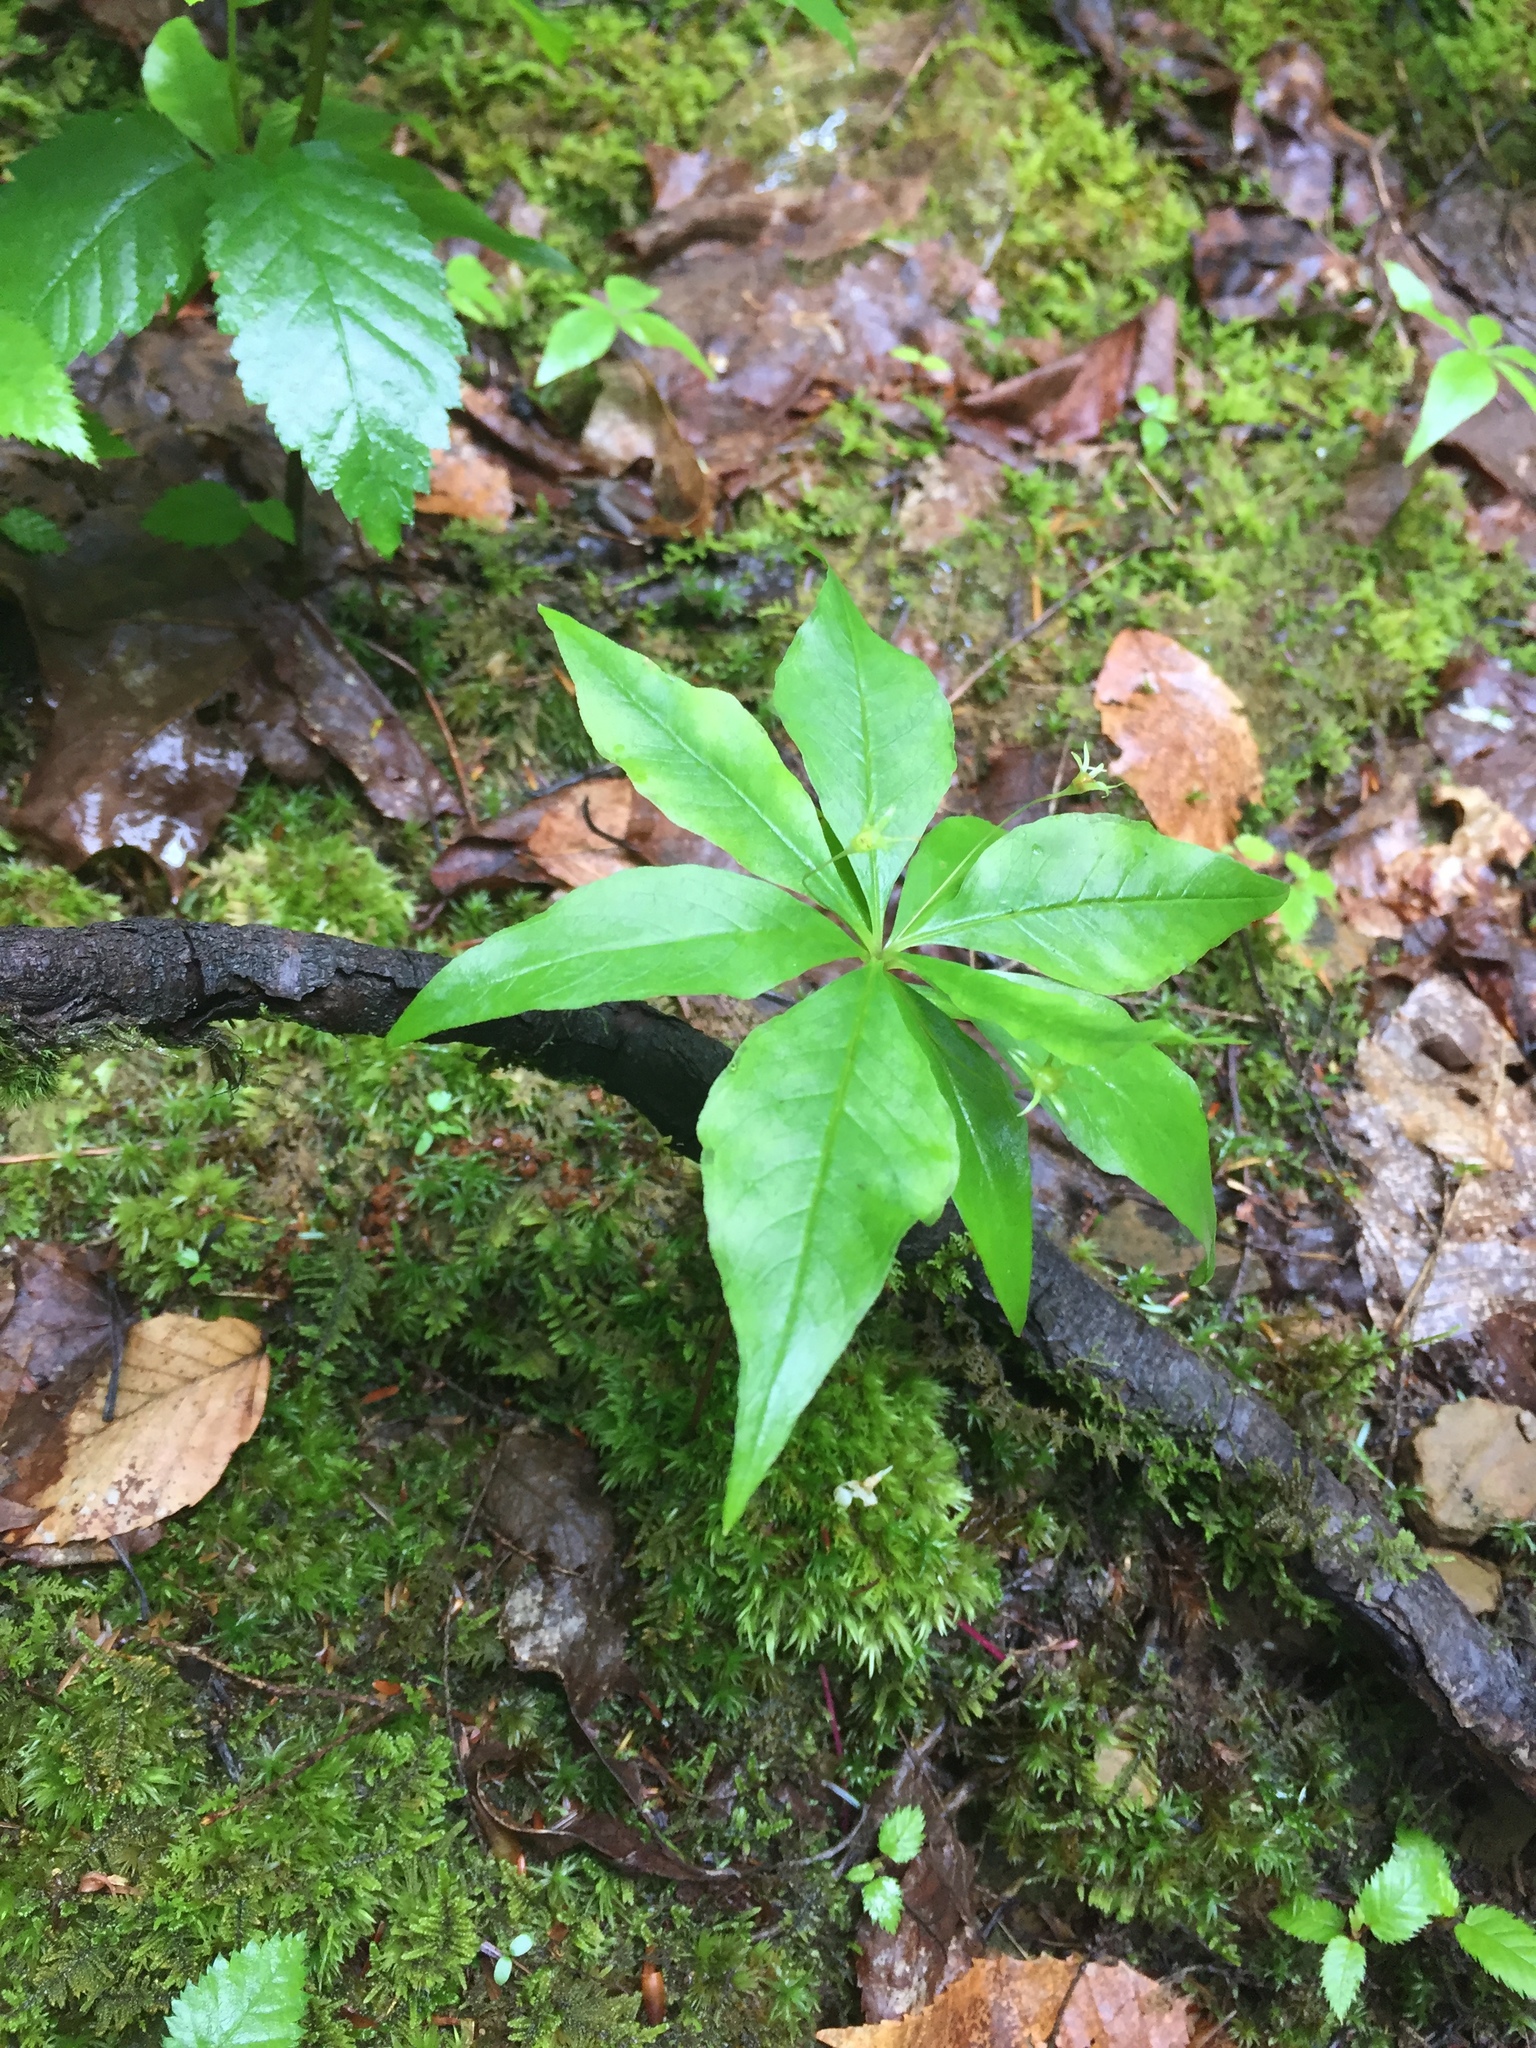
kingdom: Plantae
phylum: Tracheophyta
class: Magnoliopsida
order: Ericales
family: Primulaceae
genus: Lysimachia
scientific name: Lysimachia borealis
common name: American starflower
